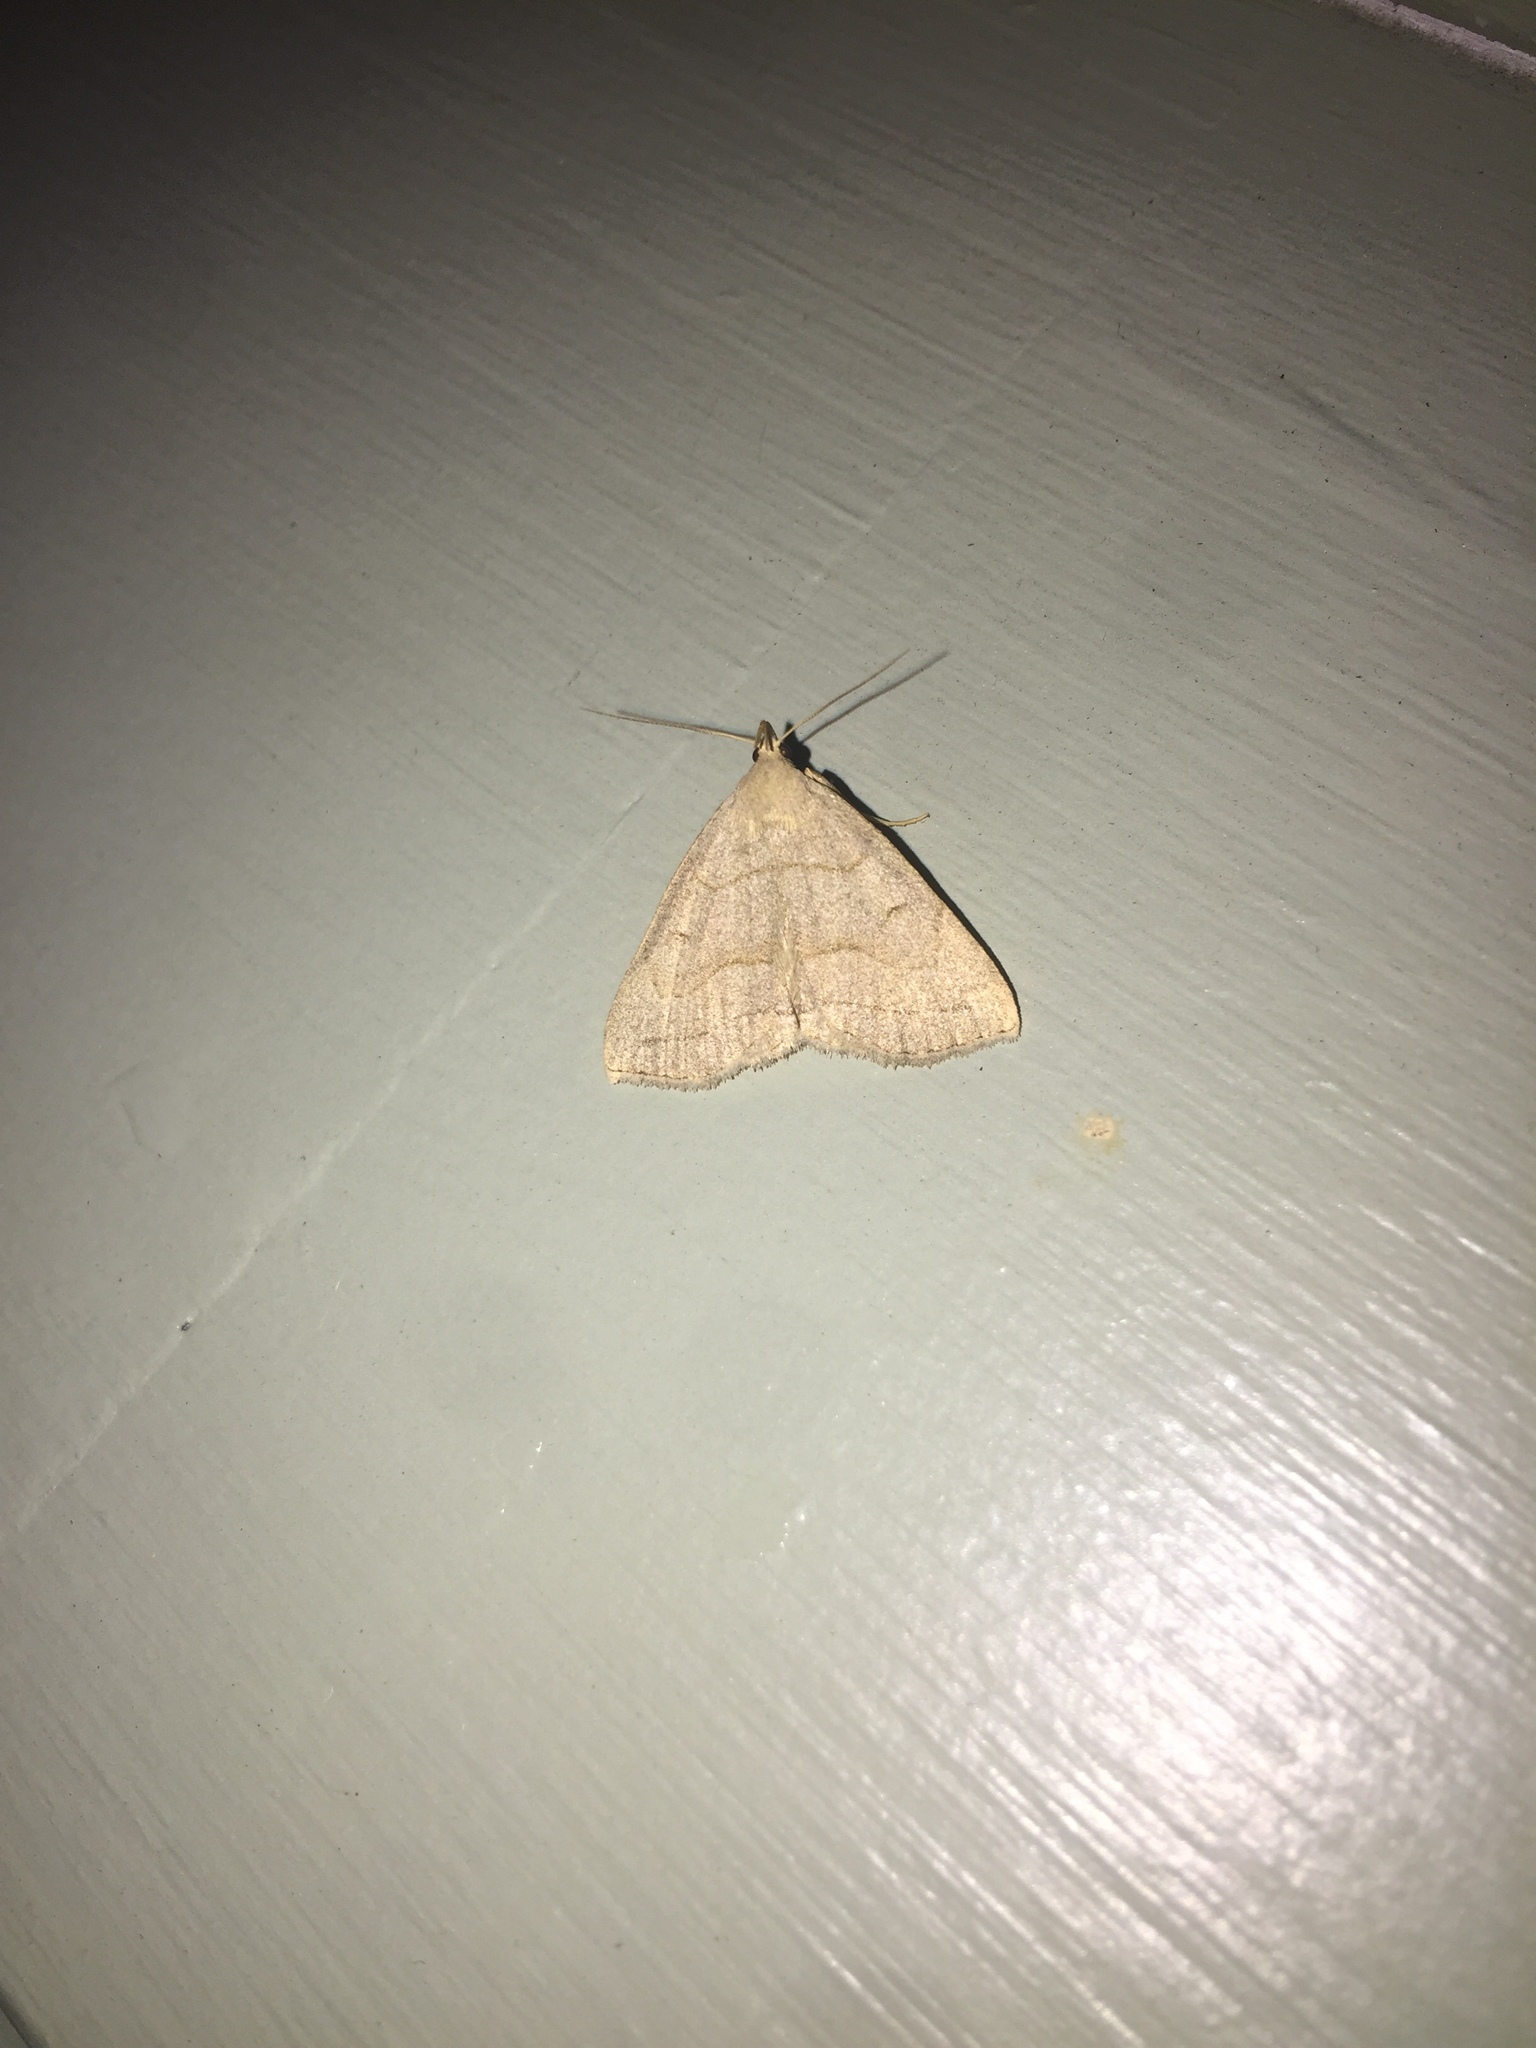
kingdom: Animalia
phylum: Arthropoda
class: Insecta
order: Lepidoptera
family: Erebidae
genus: Zanclognatha
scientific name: Zanclognatha pedipilalis
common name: Grayish fan-foot
